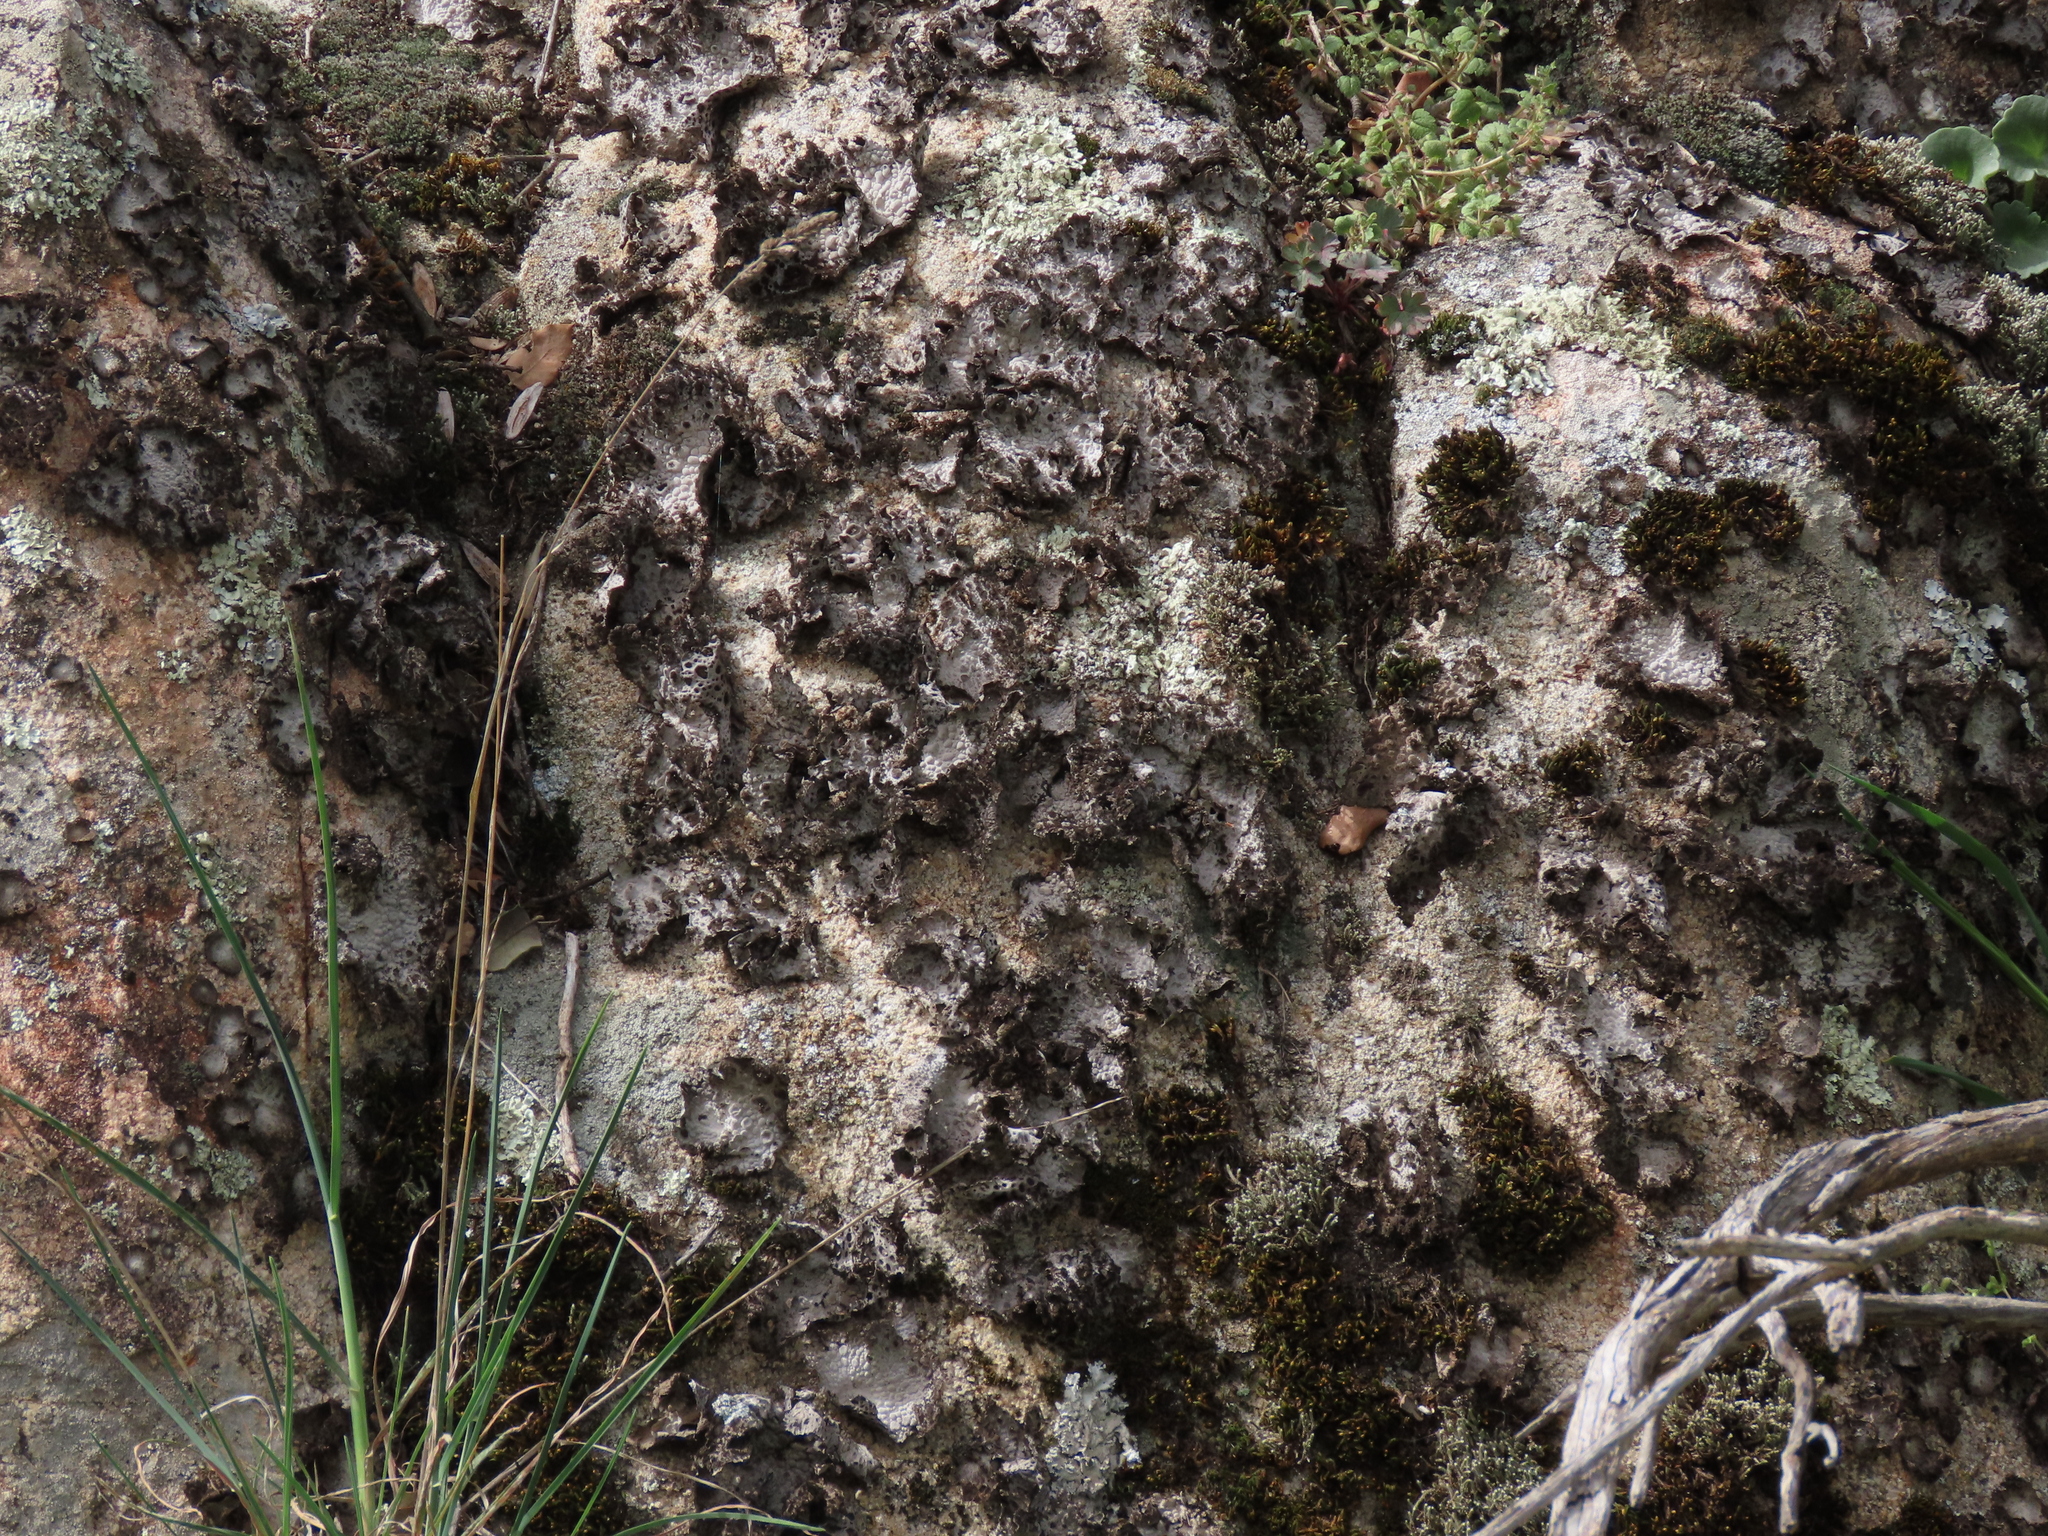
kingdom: Fungi
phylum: Ascomycota
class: Lecanoromycetes
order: Umbilicariales
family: Umbilicariaceae
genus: Lasallia
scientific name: Lasallia pustulata
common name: Blistered toadskin lichen
